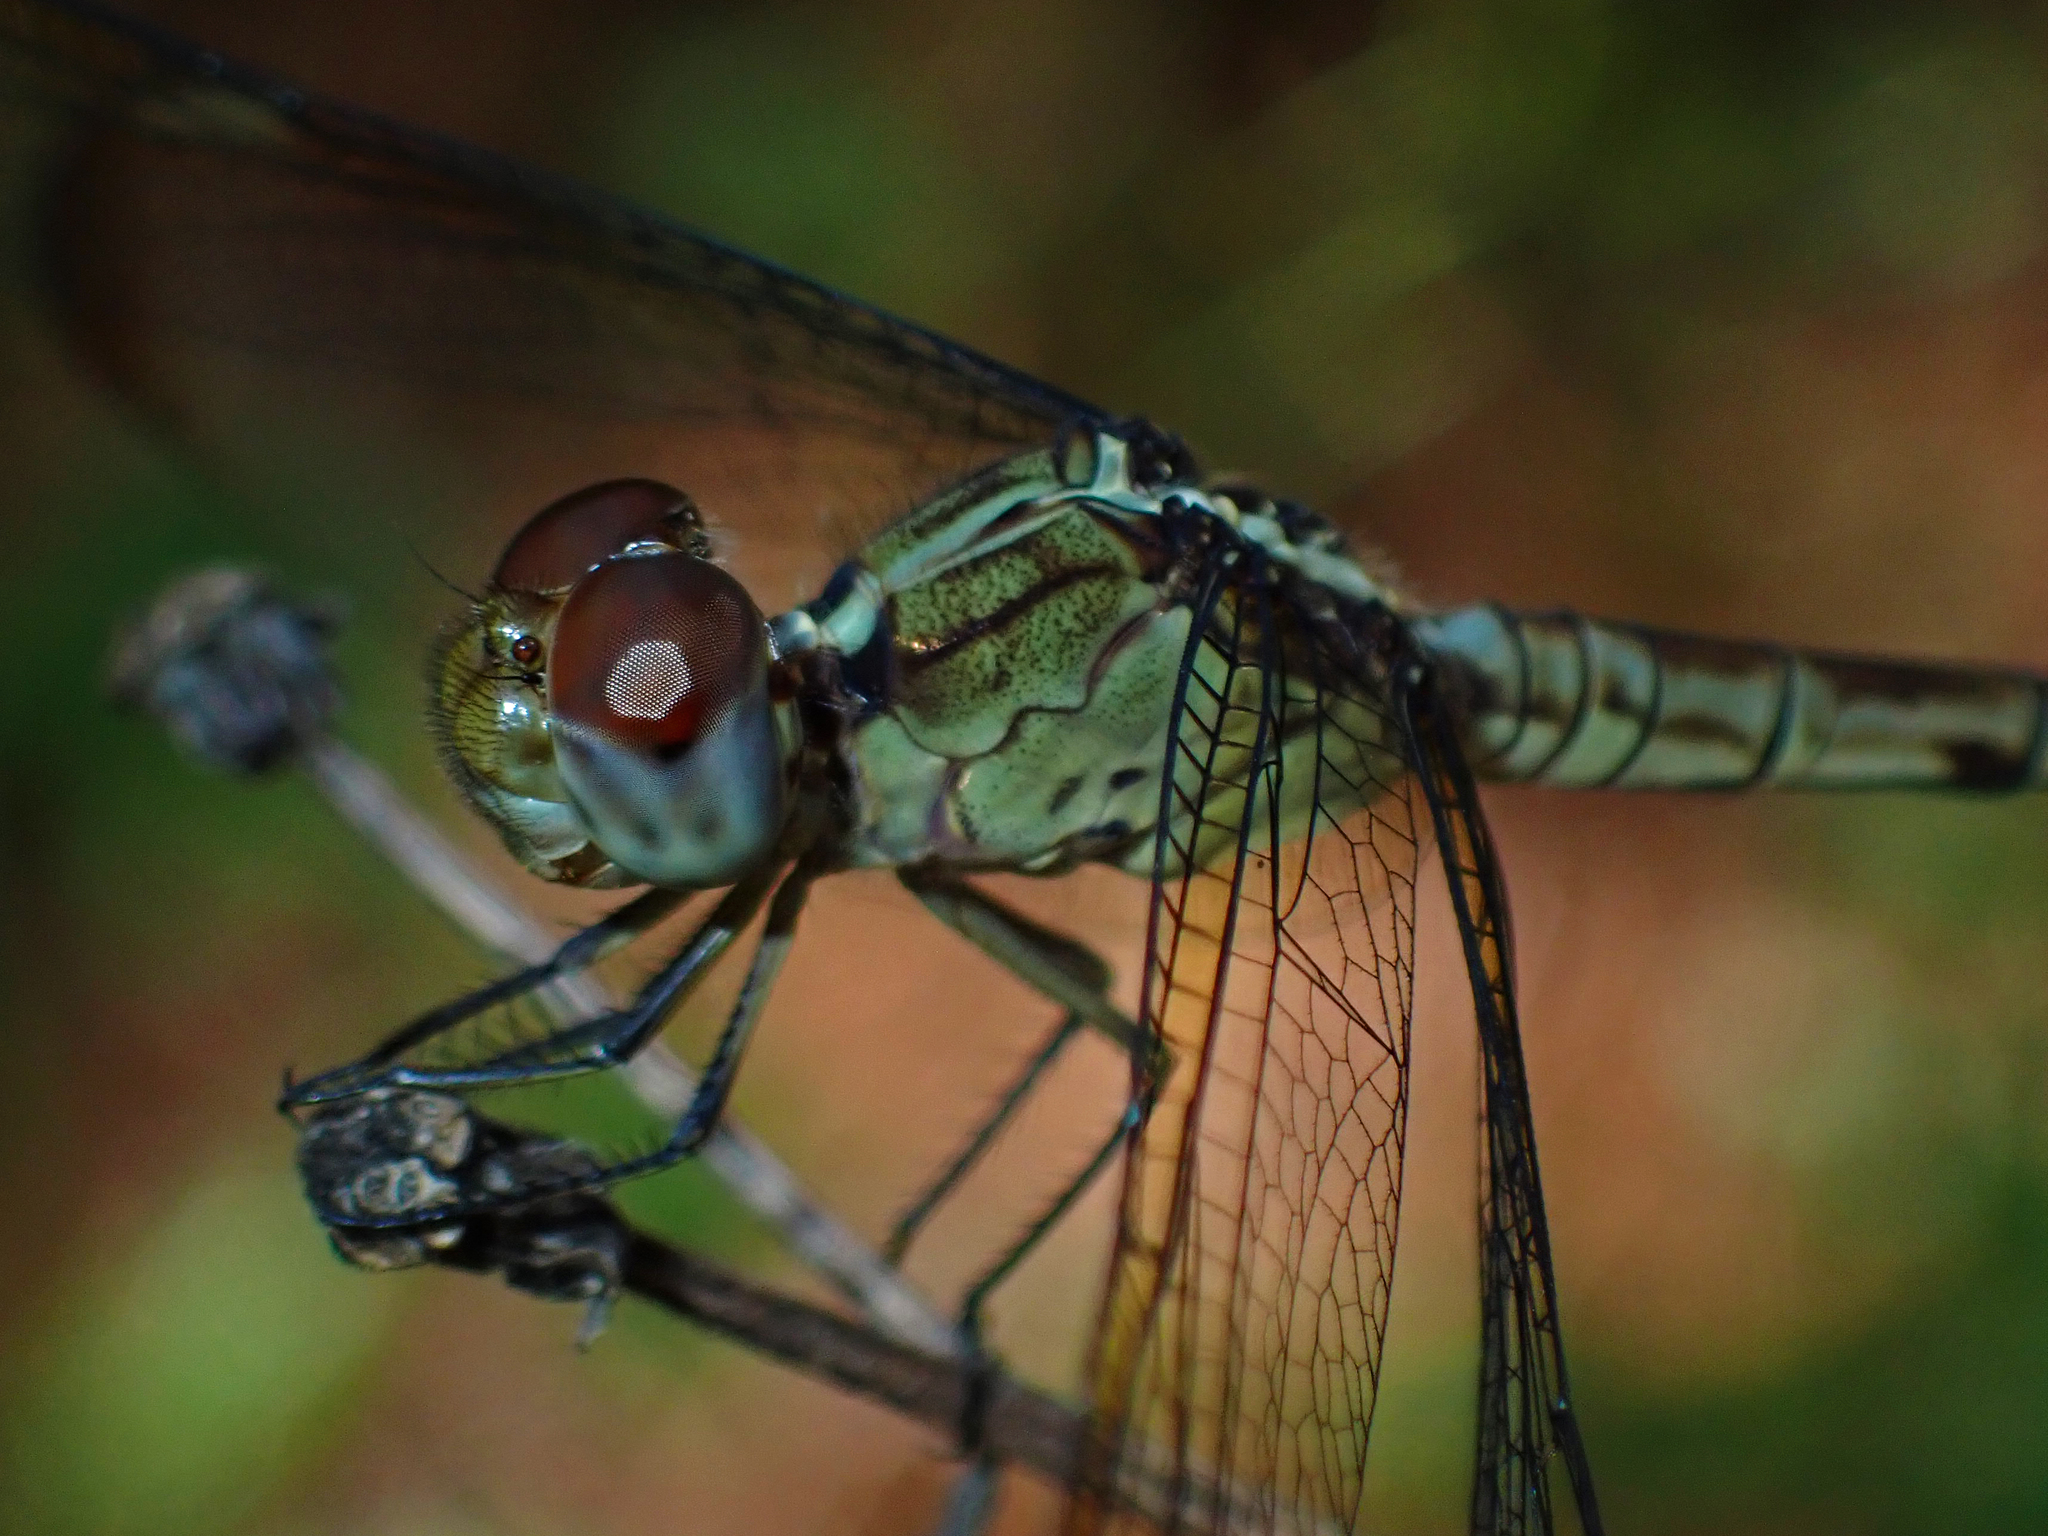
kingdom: Animalia
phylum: Arthropoda
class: Insecta
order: Odonata
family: Libellulidae
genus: Erythrodiplax
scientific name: Erythrodiplax umbrata
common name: Band-winged dragonlet
